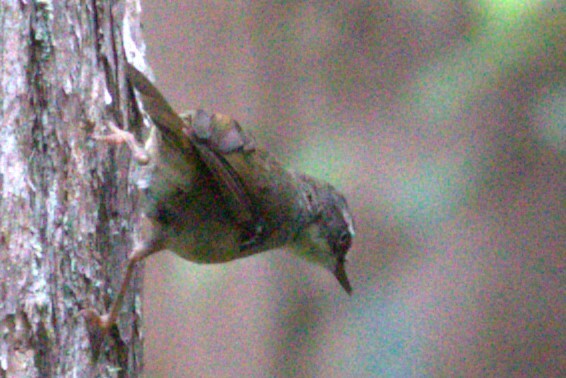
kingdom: Animalia
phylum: Chordata
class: Aves
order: Passeriformes
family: Acanthizidae
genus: Sericornis
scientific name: Sericornis frontalis
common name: White-browed scrubwren
